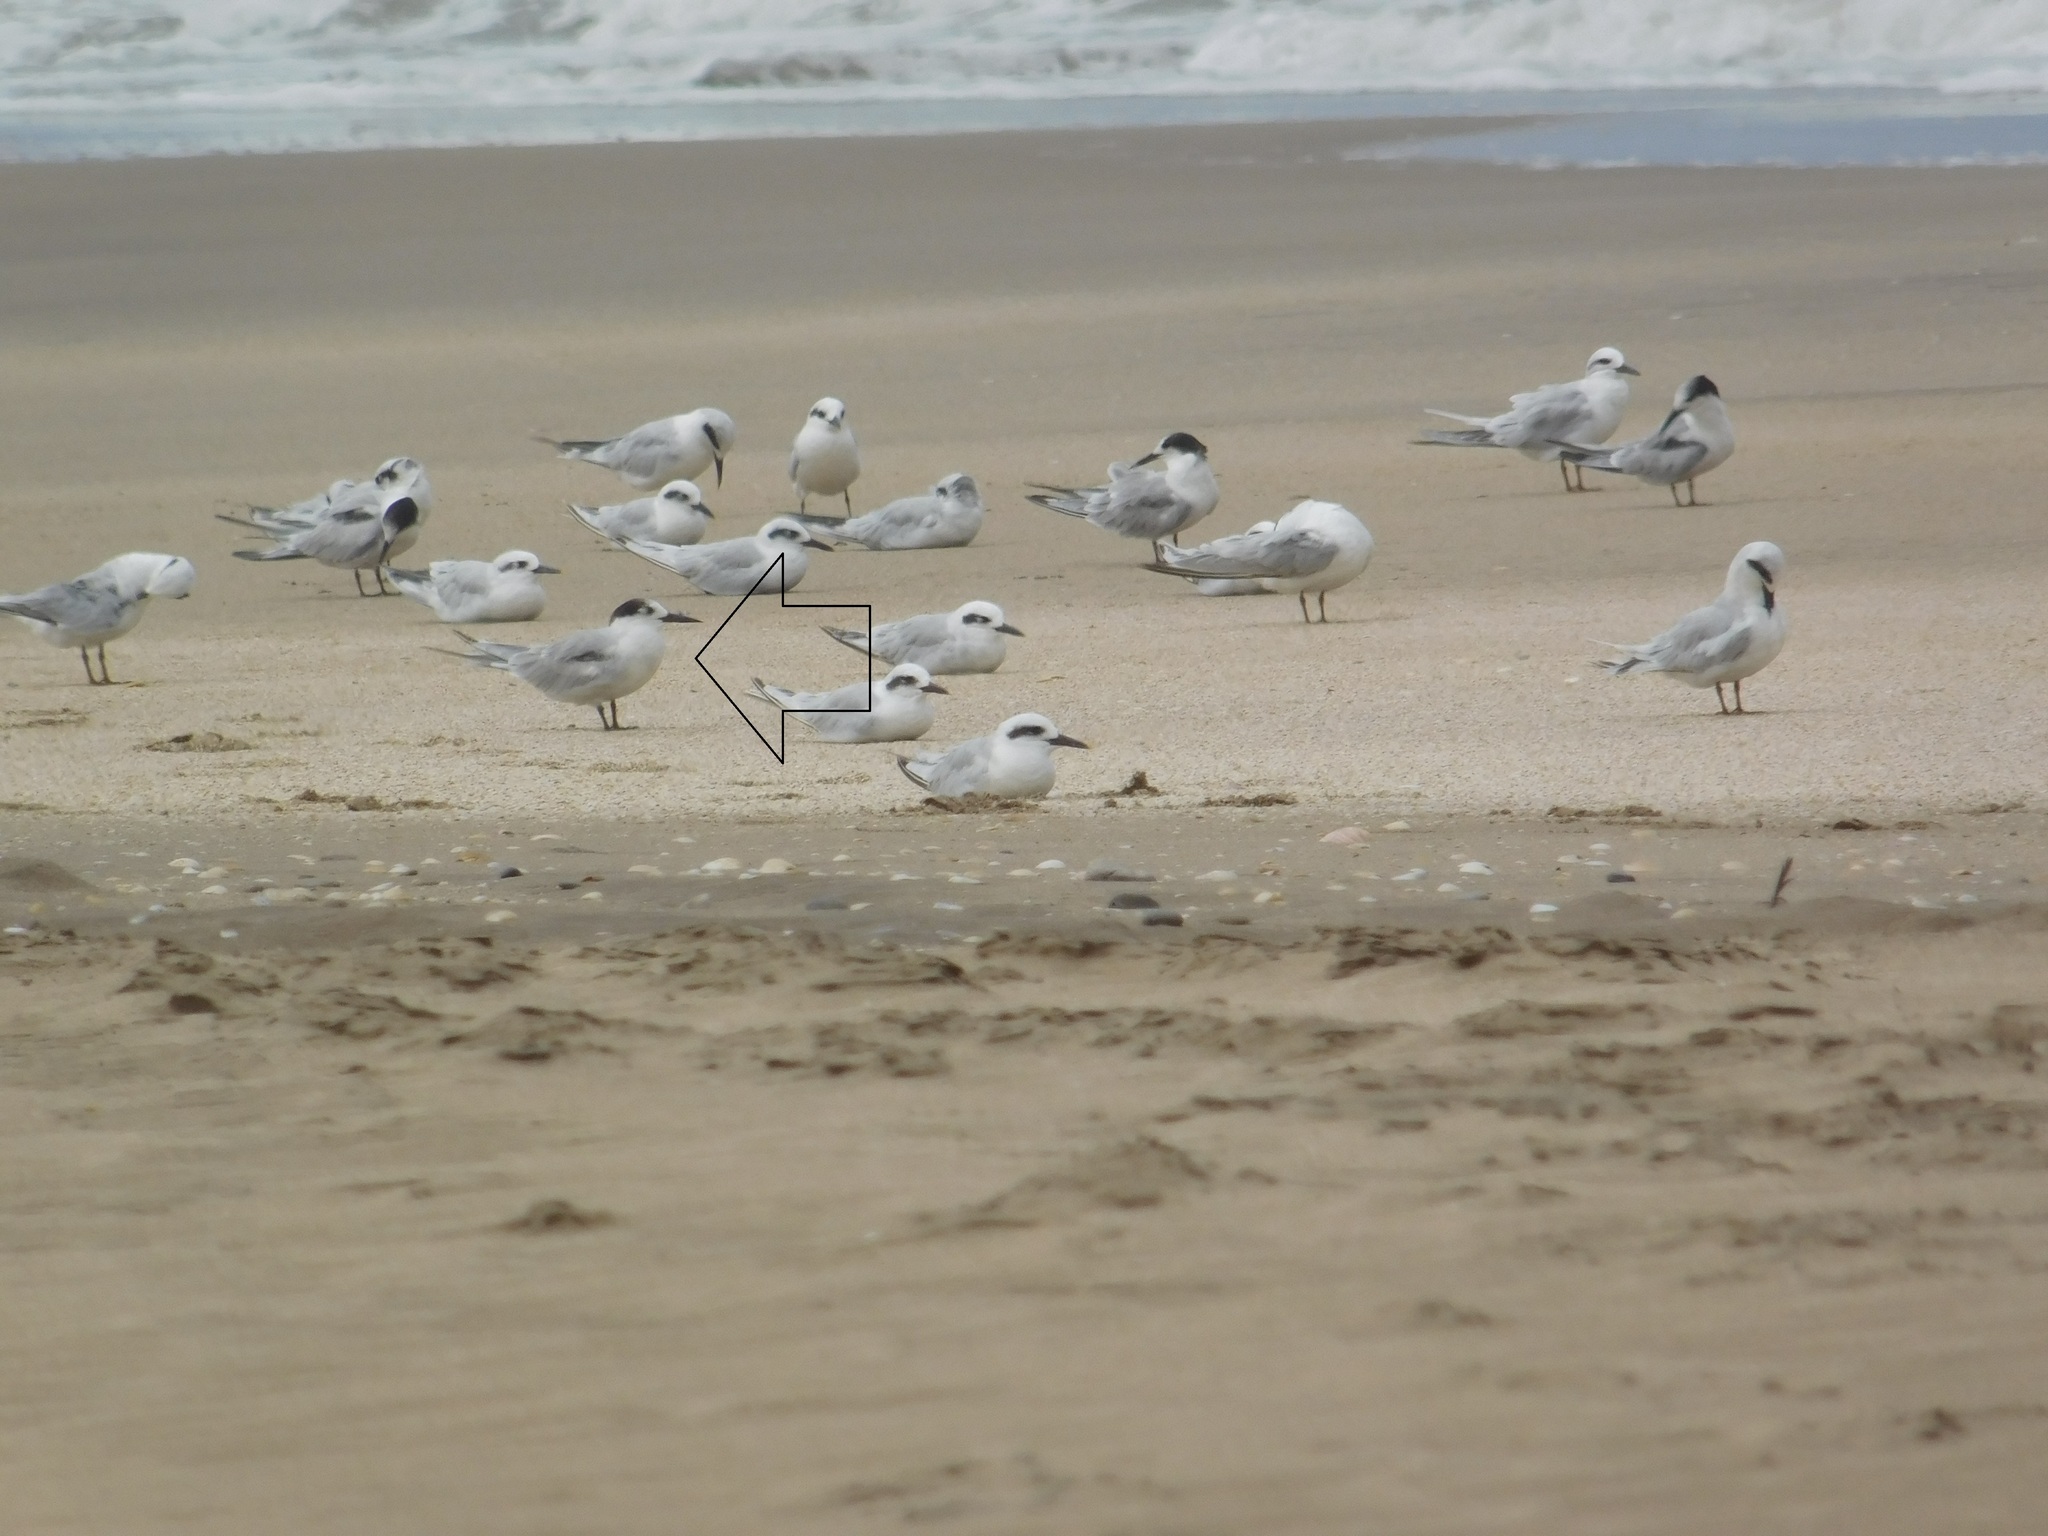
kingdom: Animalia
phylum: Chordata
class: Aves
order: Charadriiformes
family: Laridae
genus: Sterna
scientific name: Sterna hirundo
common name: Common tern
